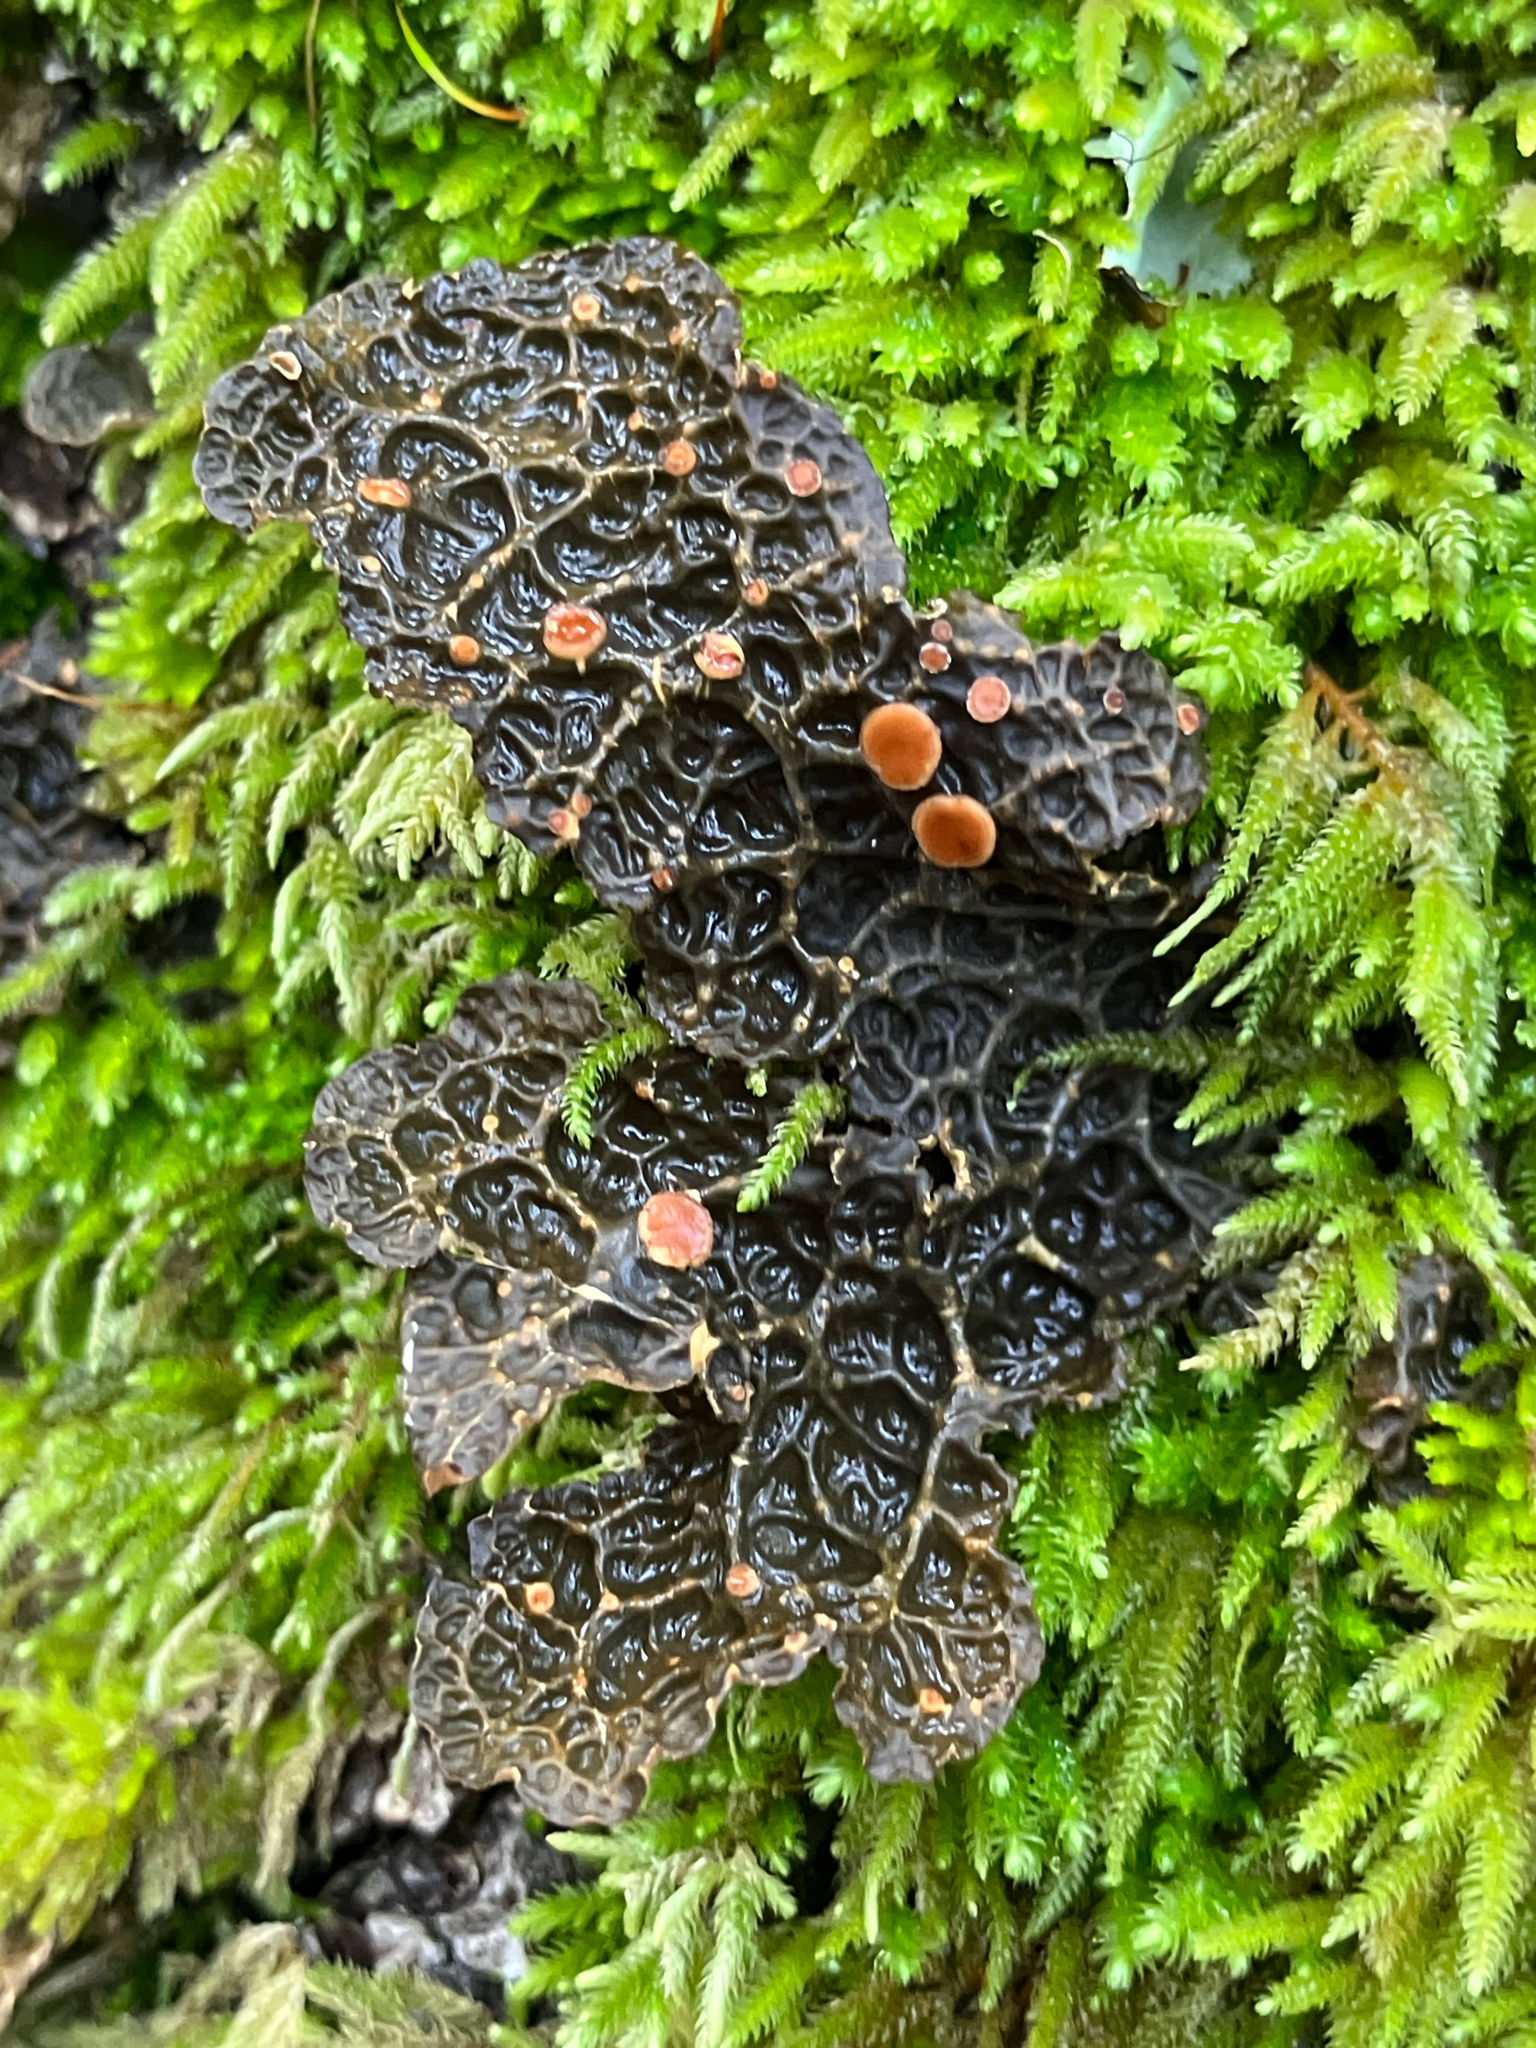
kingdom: Fungi
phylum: Ascomycota
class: Lecanoromycetes
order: Peltigerales
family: Lobariaceae
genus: Lobaria
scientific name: Lobaria anthraspis
